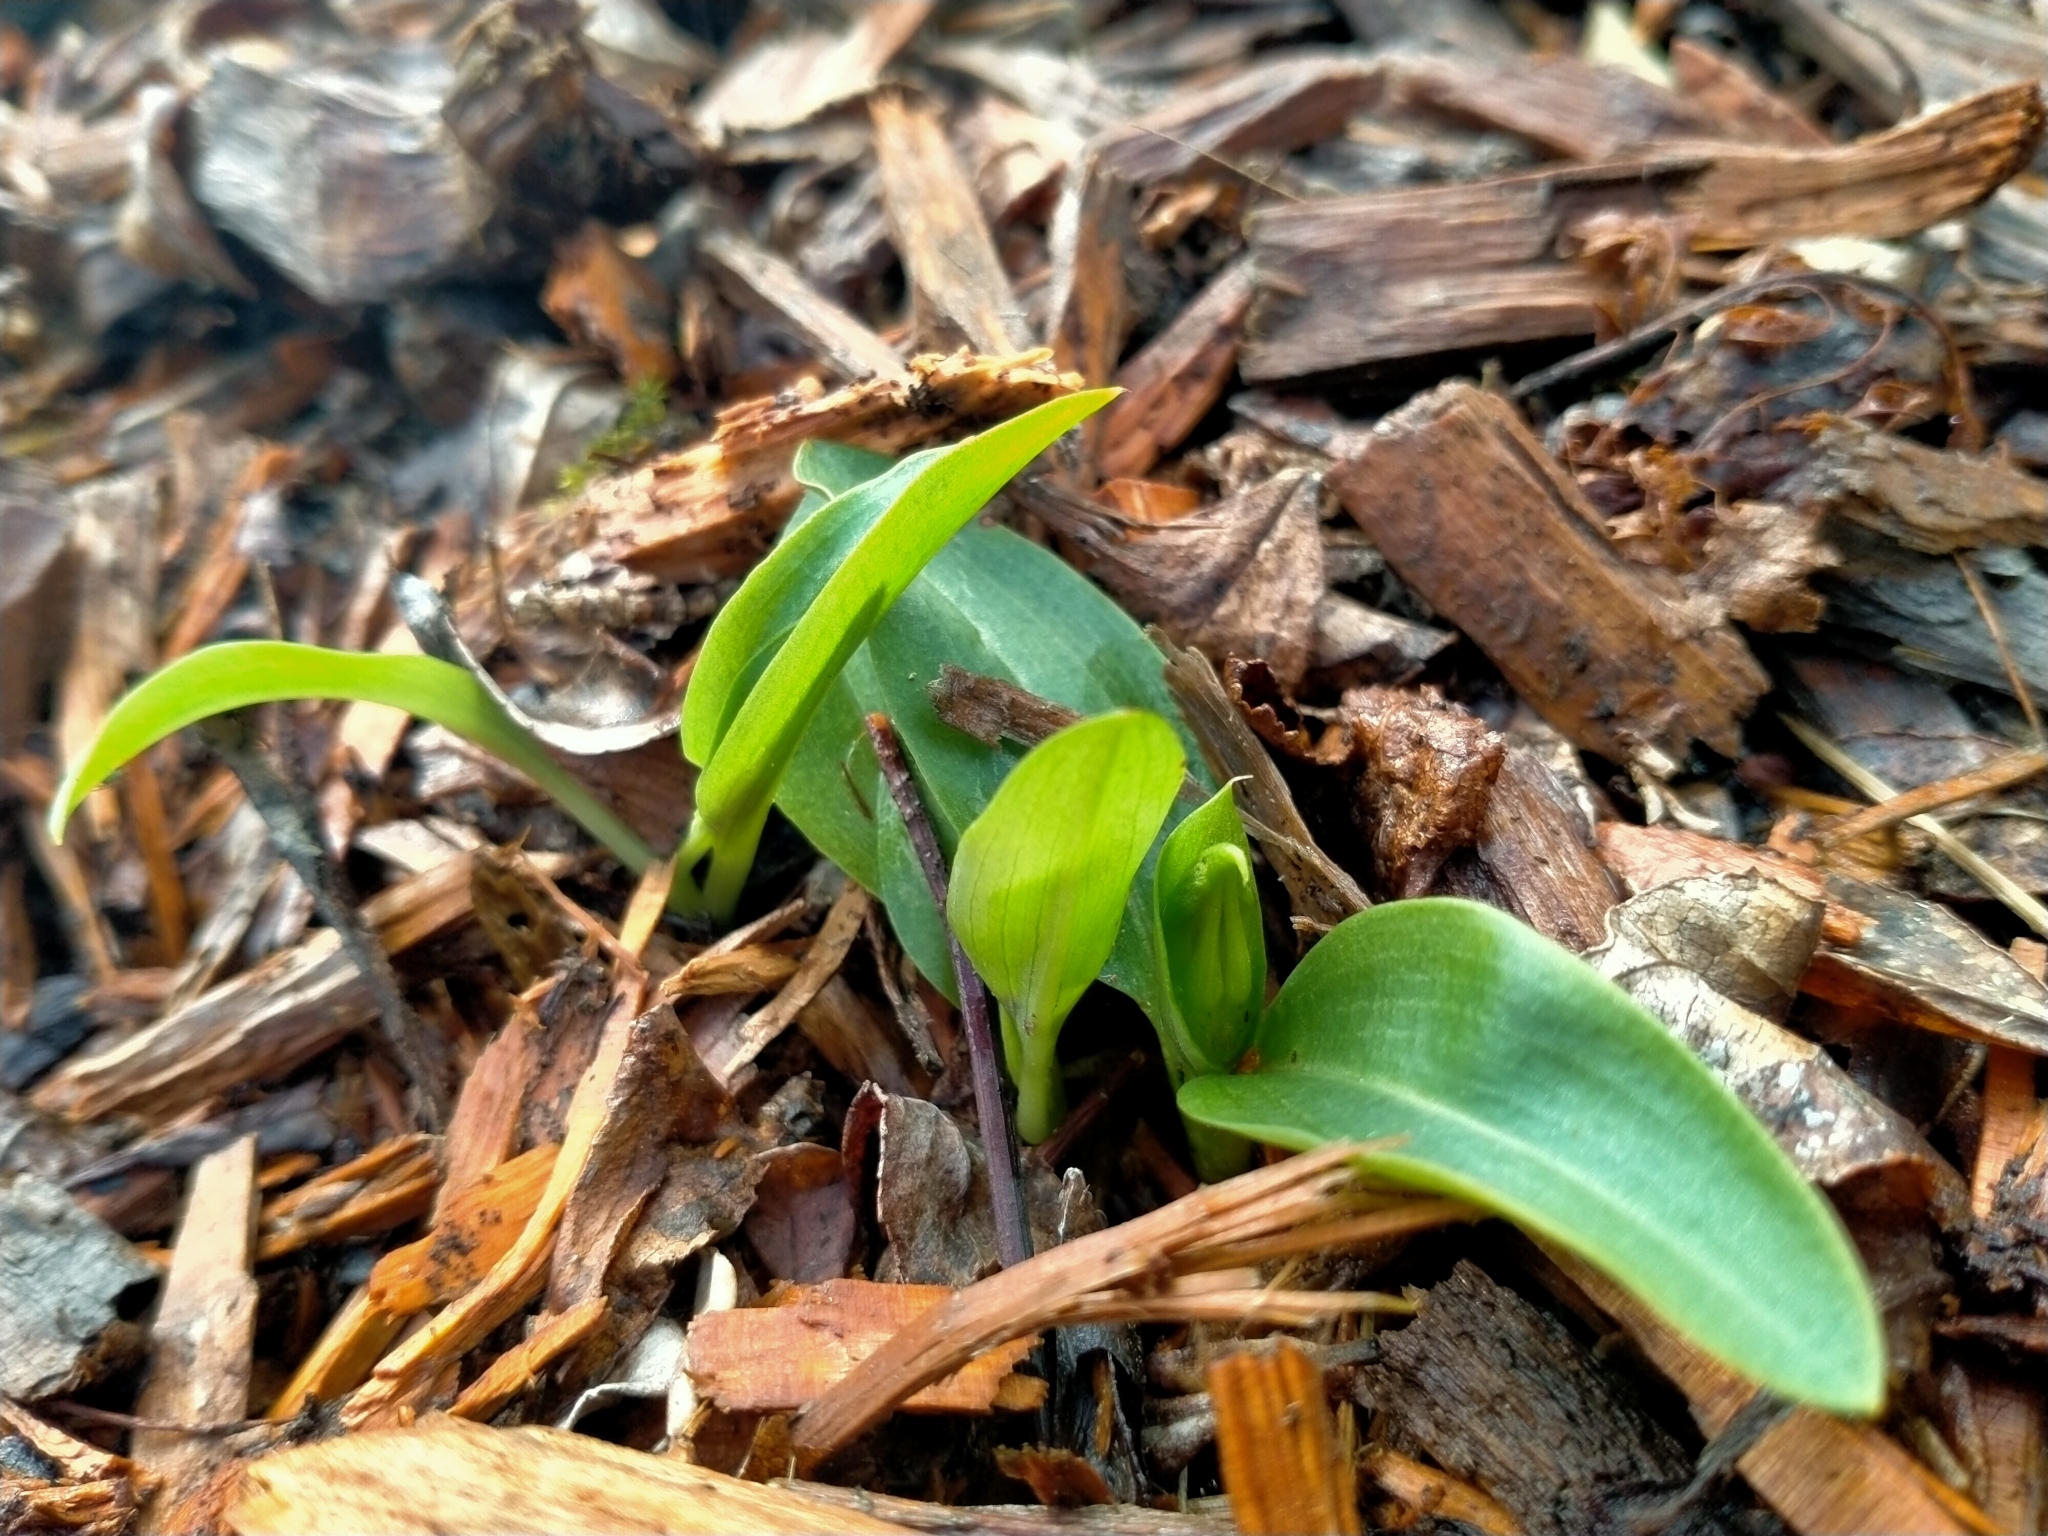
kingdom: Plantae
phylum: Tracheophyta
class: Liliopsida
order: Asparagales
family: Orchidaceae
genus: Chiloglottis
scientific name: Chiloglottis cornuta
